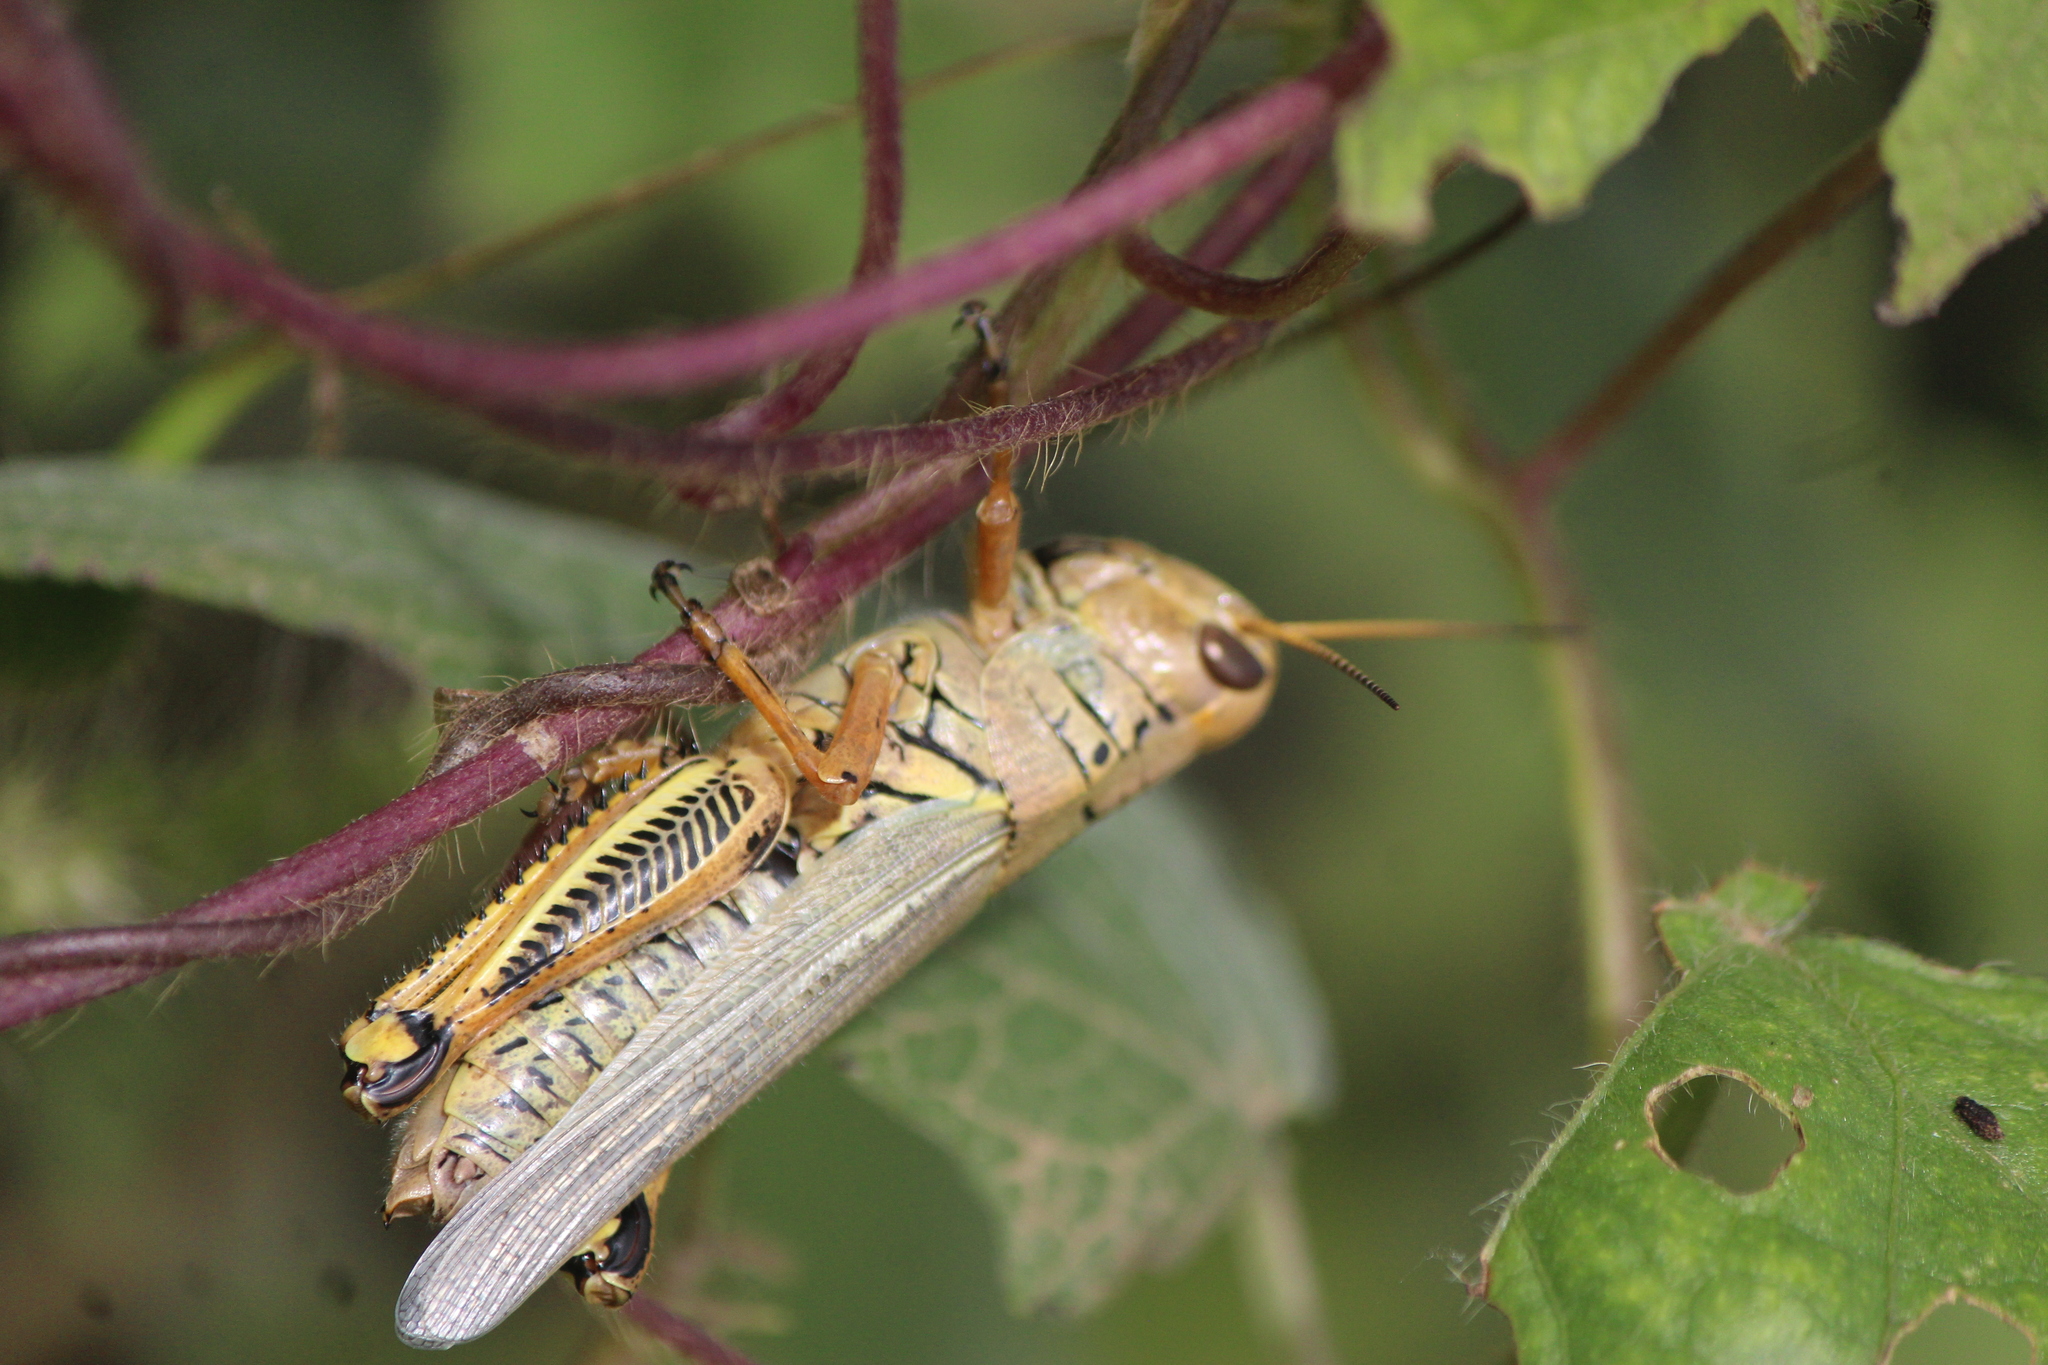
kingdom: Animalia
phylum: Arthropoda
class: Insecta
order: Orthoptera
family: Acrididae
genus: Melanoplus
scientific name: Melanoplus differentialis
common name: Differential grasshopper
